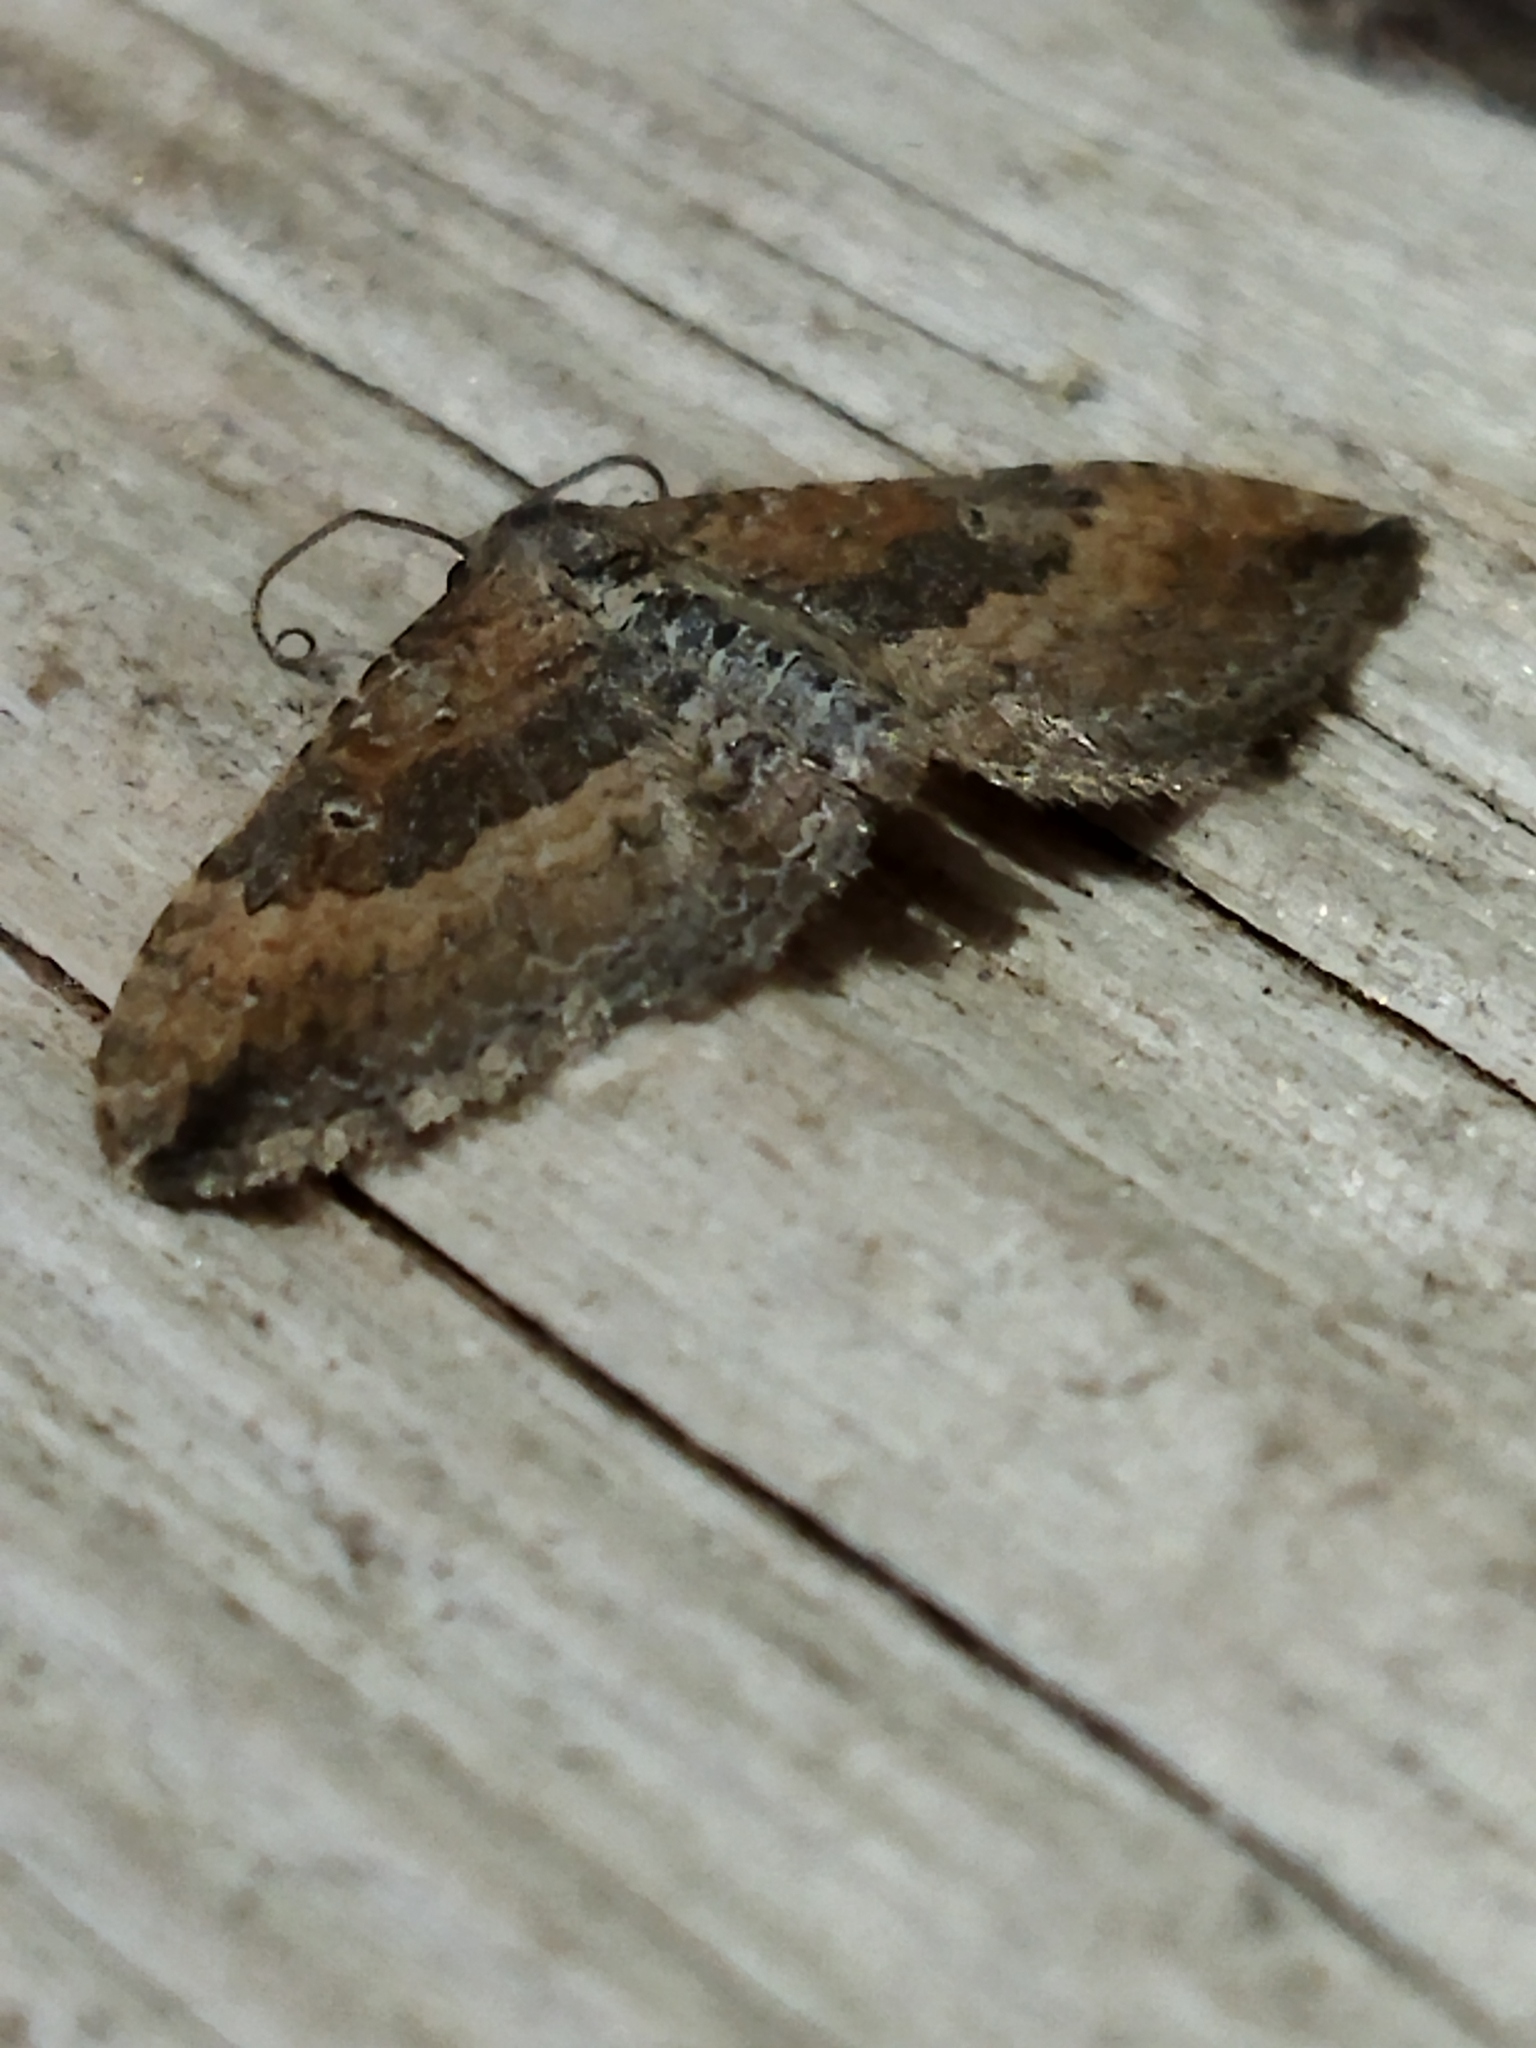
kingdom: Animalia
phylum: Arthropoda
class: Insecta
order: Lepidoptera
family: Geometridae
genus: Orthonama
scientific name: Orthonama obstipata
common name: The gem
